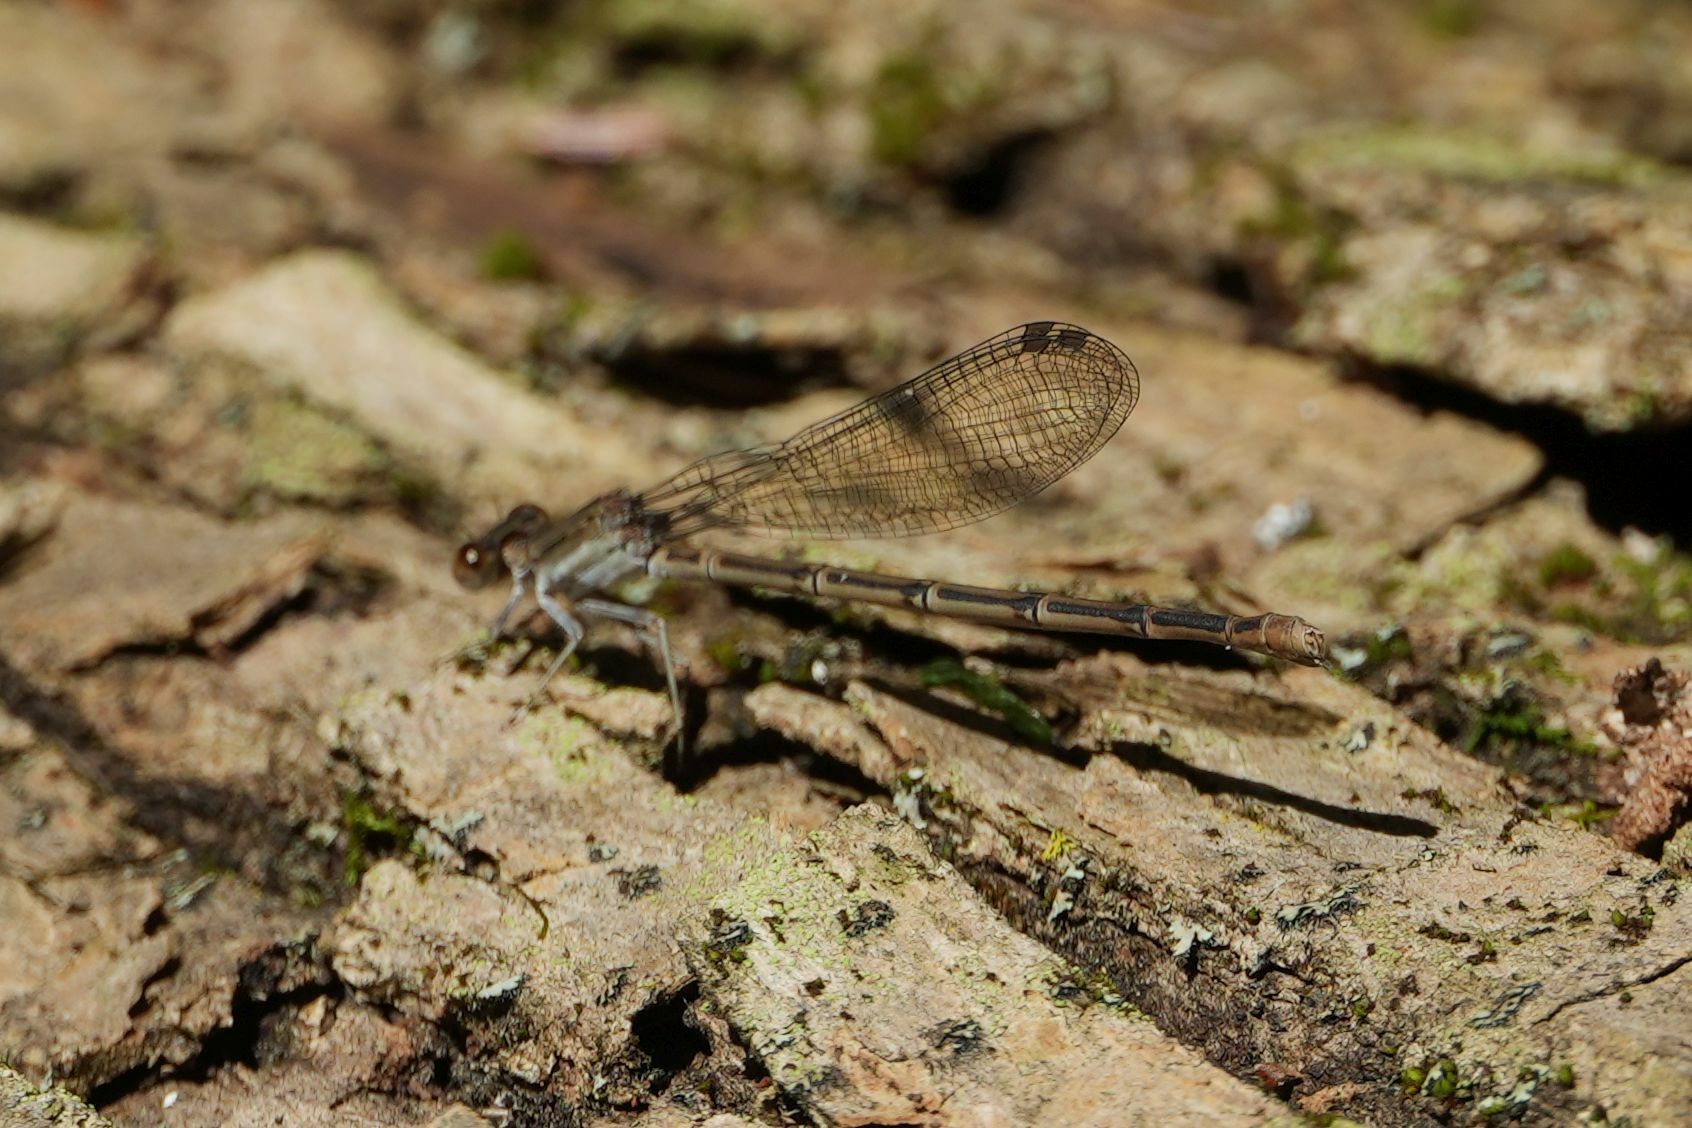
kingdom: Animalia
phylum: Arthropoda
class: Insecta
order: Odonata
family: Coenagrionidae
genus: Argia
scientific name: Argia fumipennis
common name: Variable dancer
